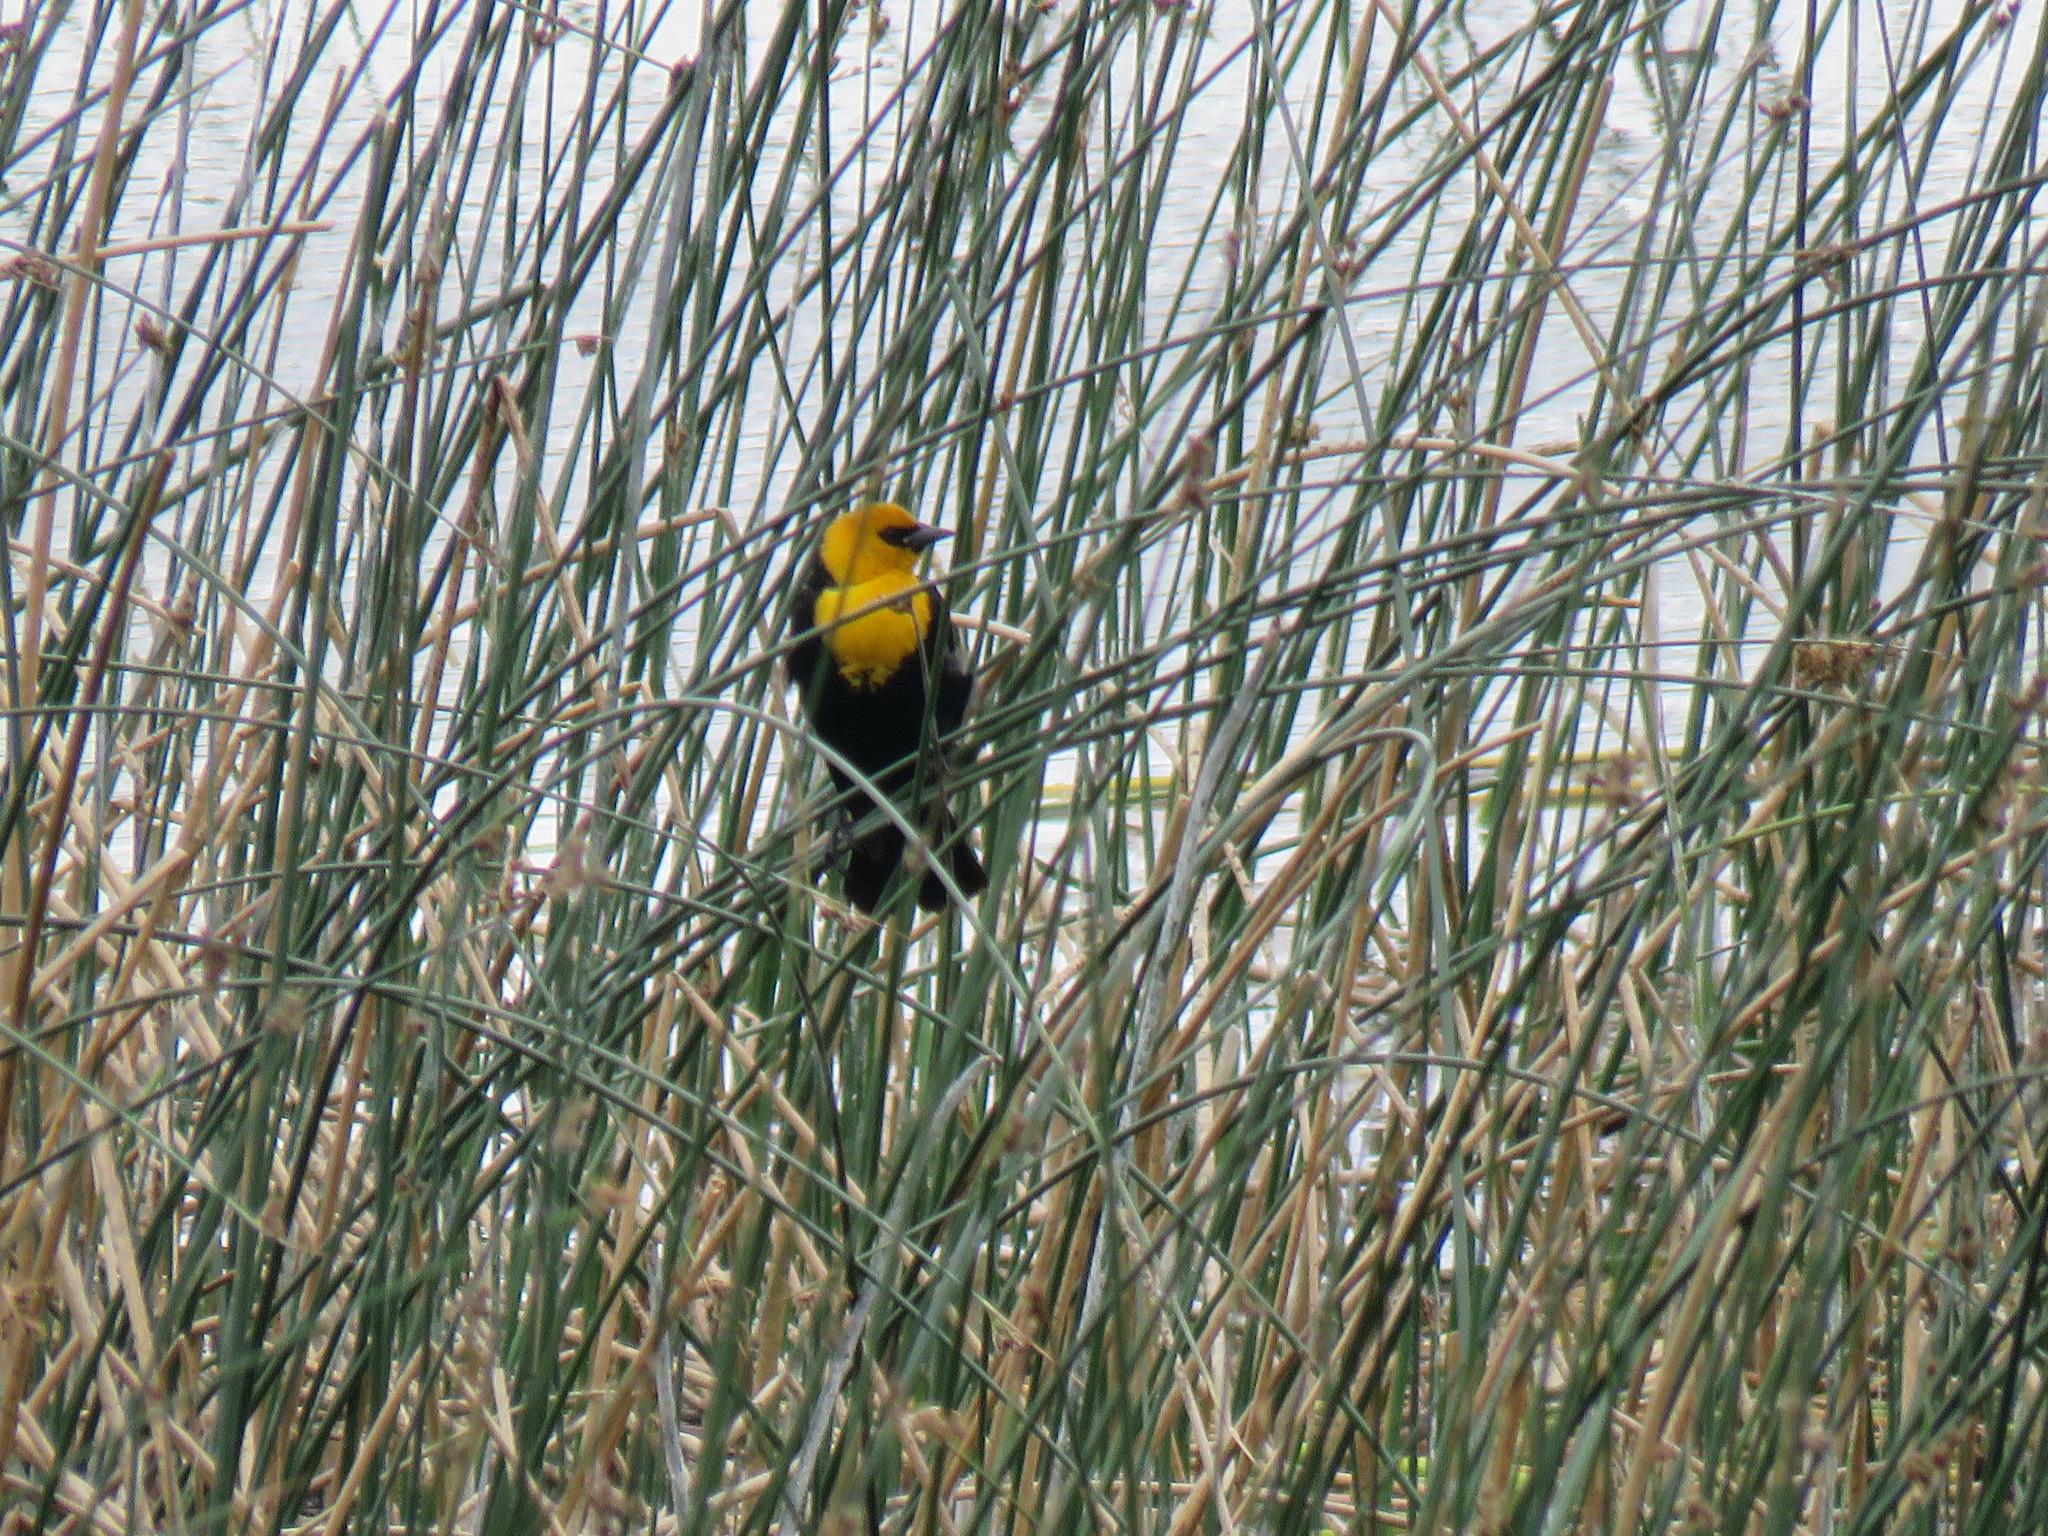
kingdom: Animalia
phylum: Chordata
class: Aves
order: Passeriformes
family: Icteridae
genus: Xanthocephalus
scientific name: Xanthocephalus xanthocephalus
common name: Yellow-headed blackbird
